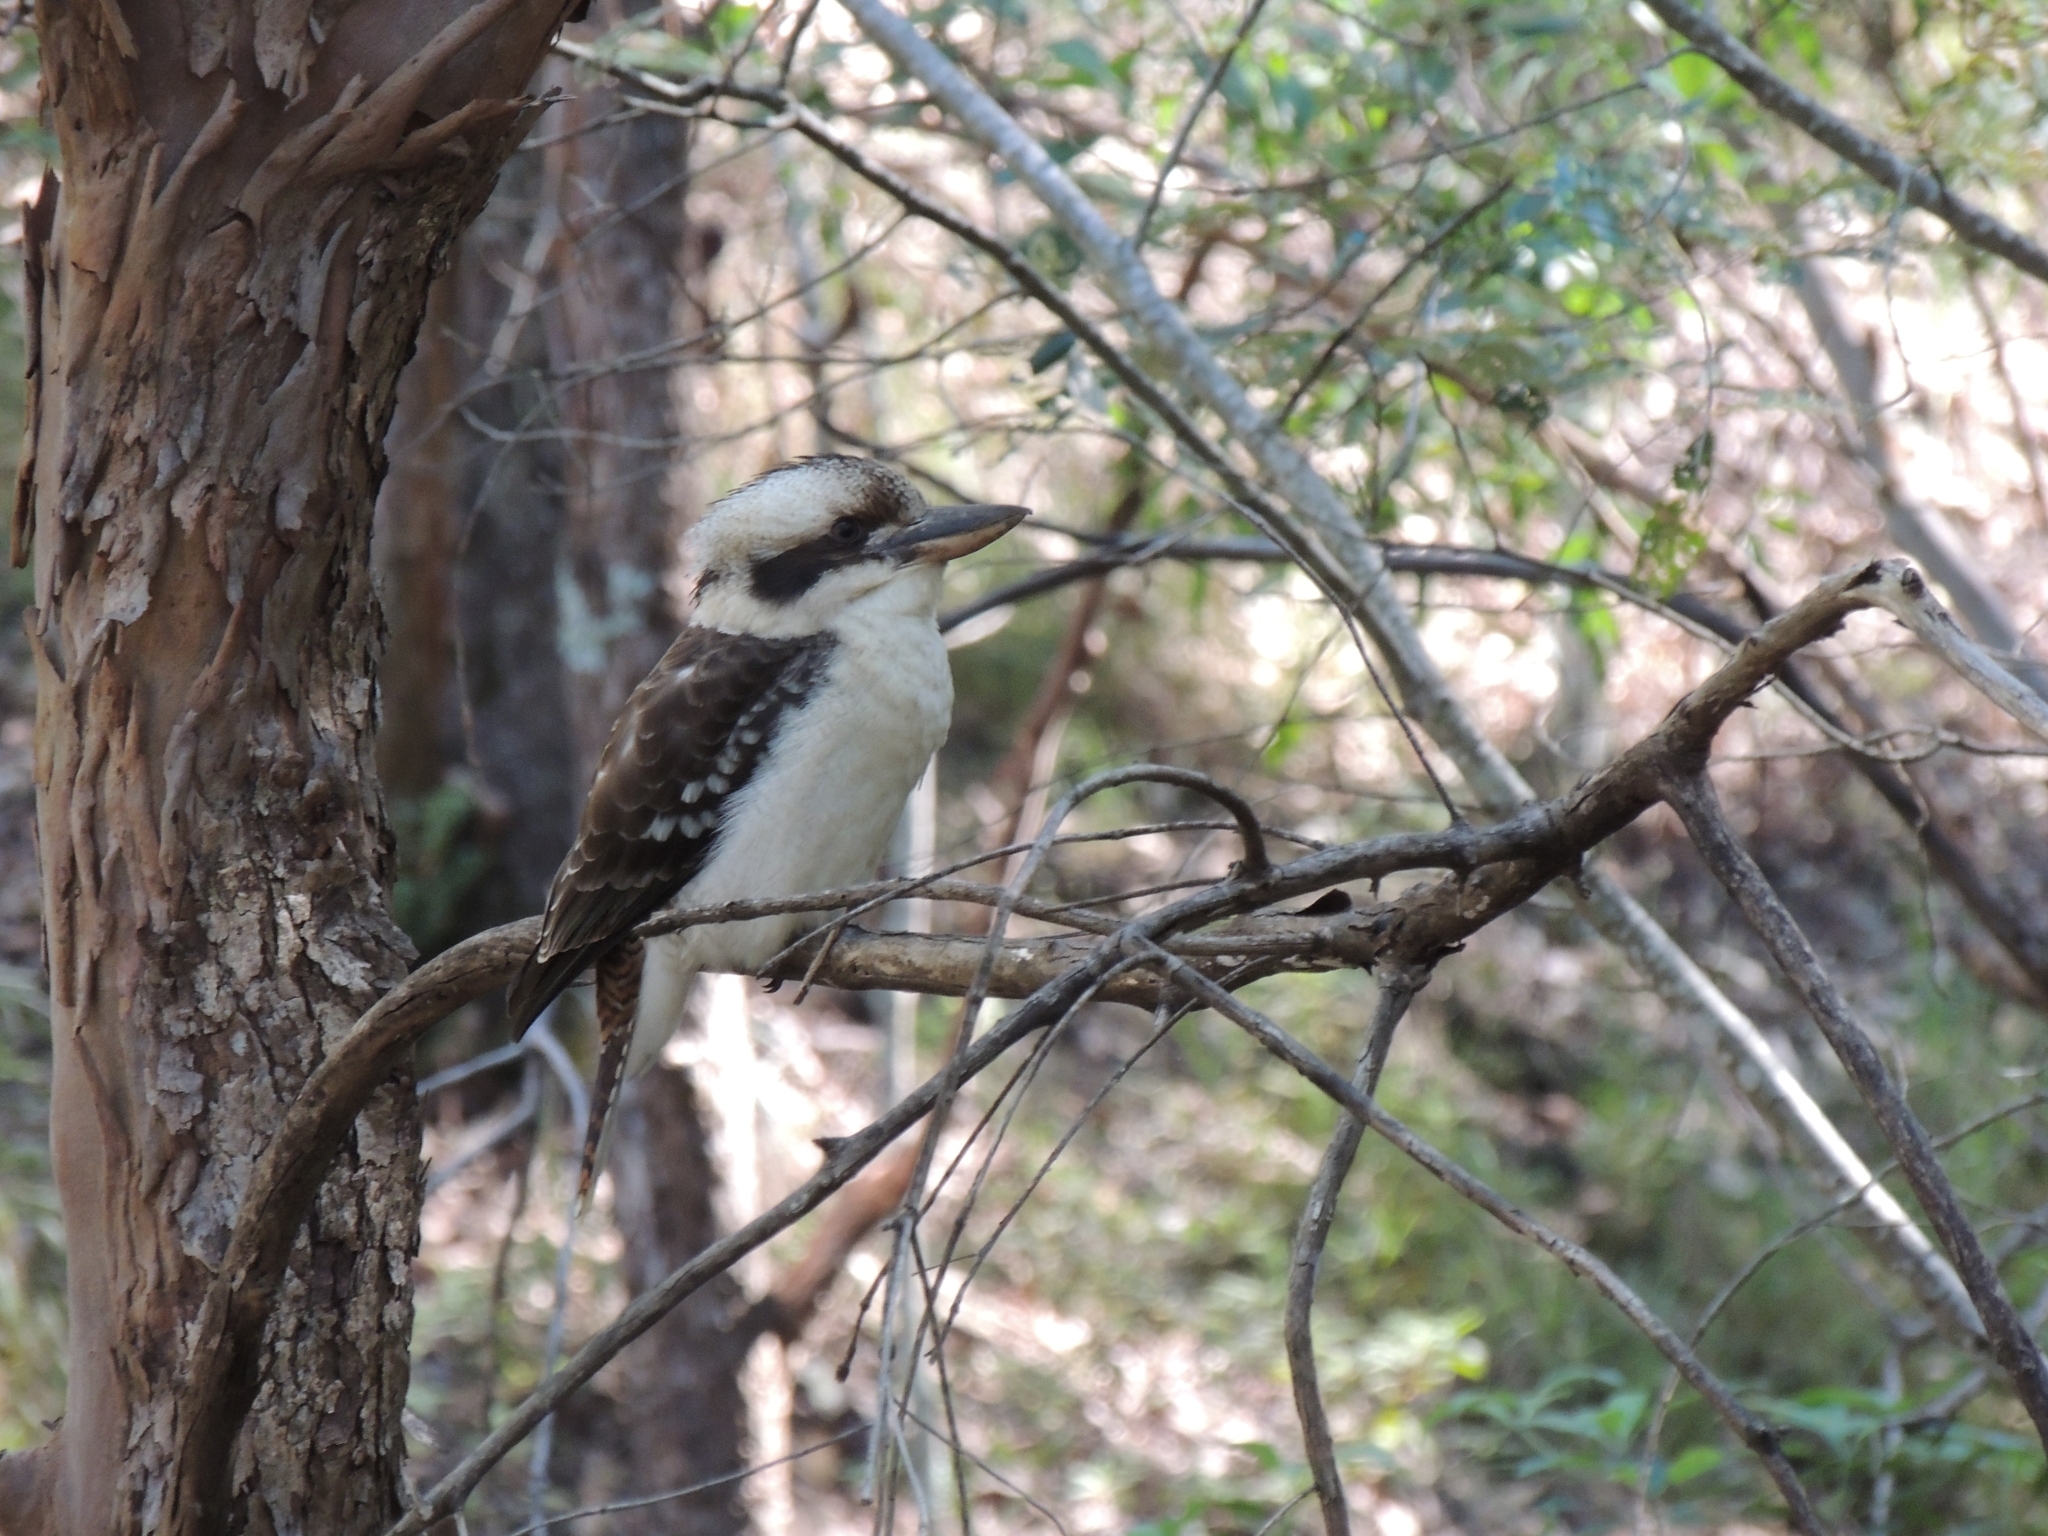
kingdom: Animalia
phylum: Chordata
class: Aves
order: Coraciiformes
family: Alcedinidae
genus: Dacelo
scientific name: Dacelo novaeguineae
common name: Laughing kookaburra
